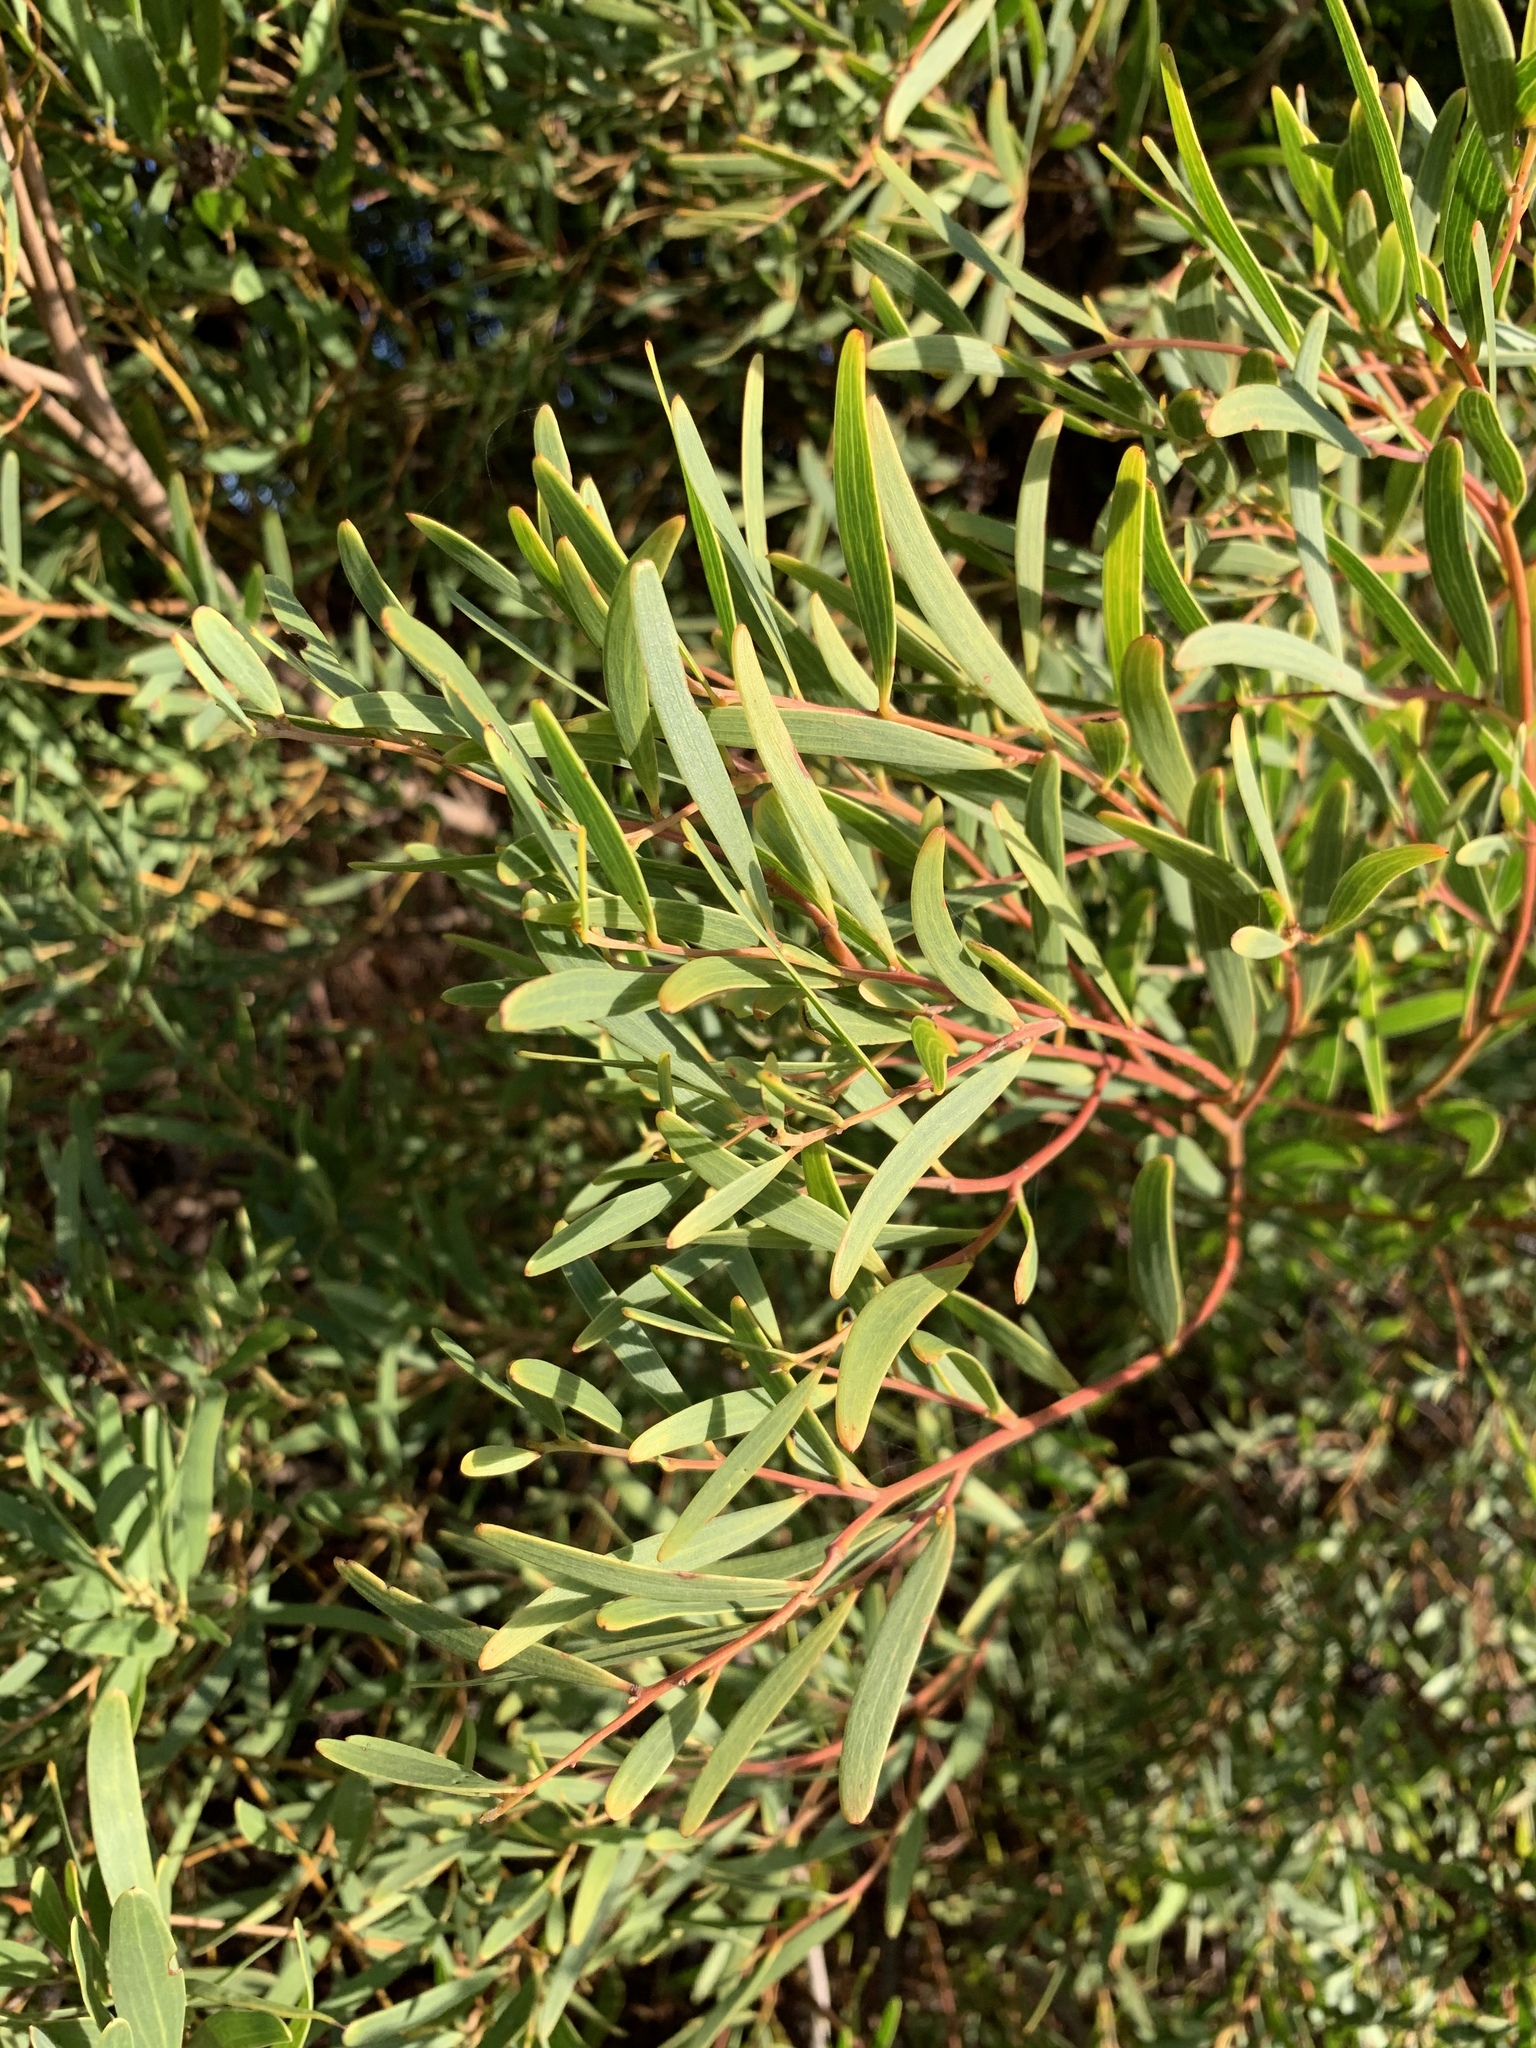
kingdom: Plantae
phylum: Tracheophyta
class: Magnoliopsida
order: Fabales
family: Fabaceae
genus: Acacia
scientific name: Acacia cyclops
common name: Coastal wattle
